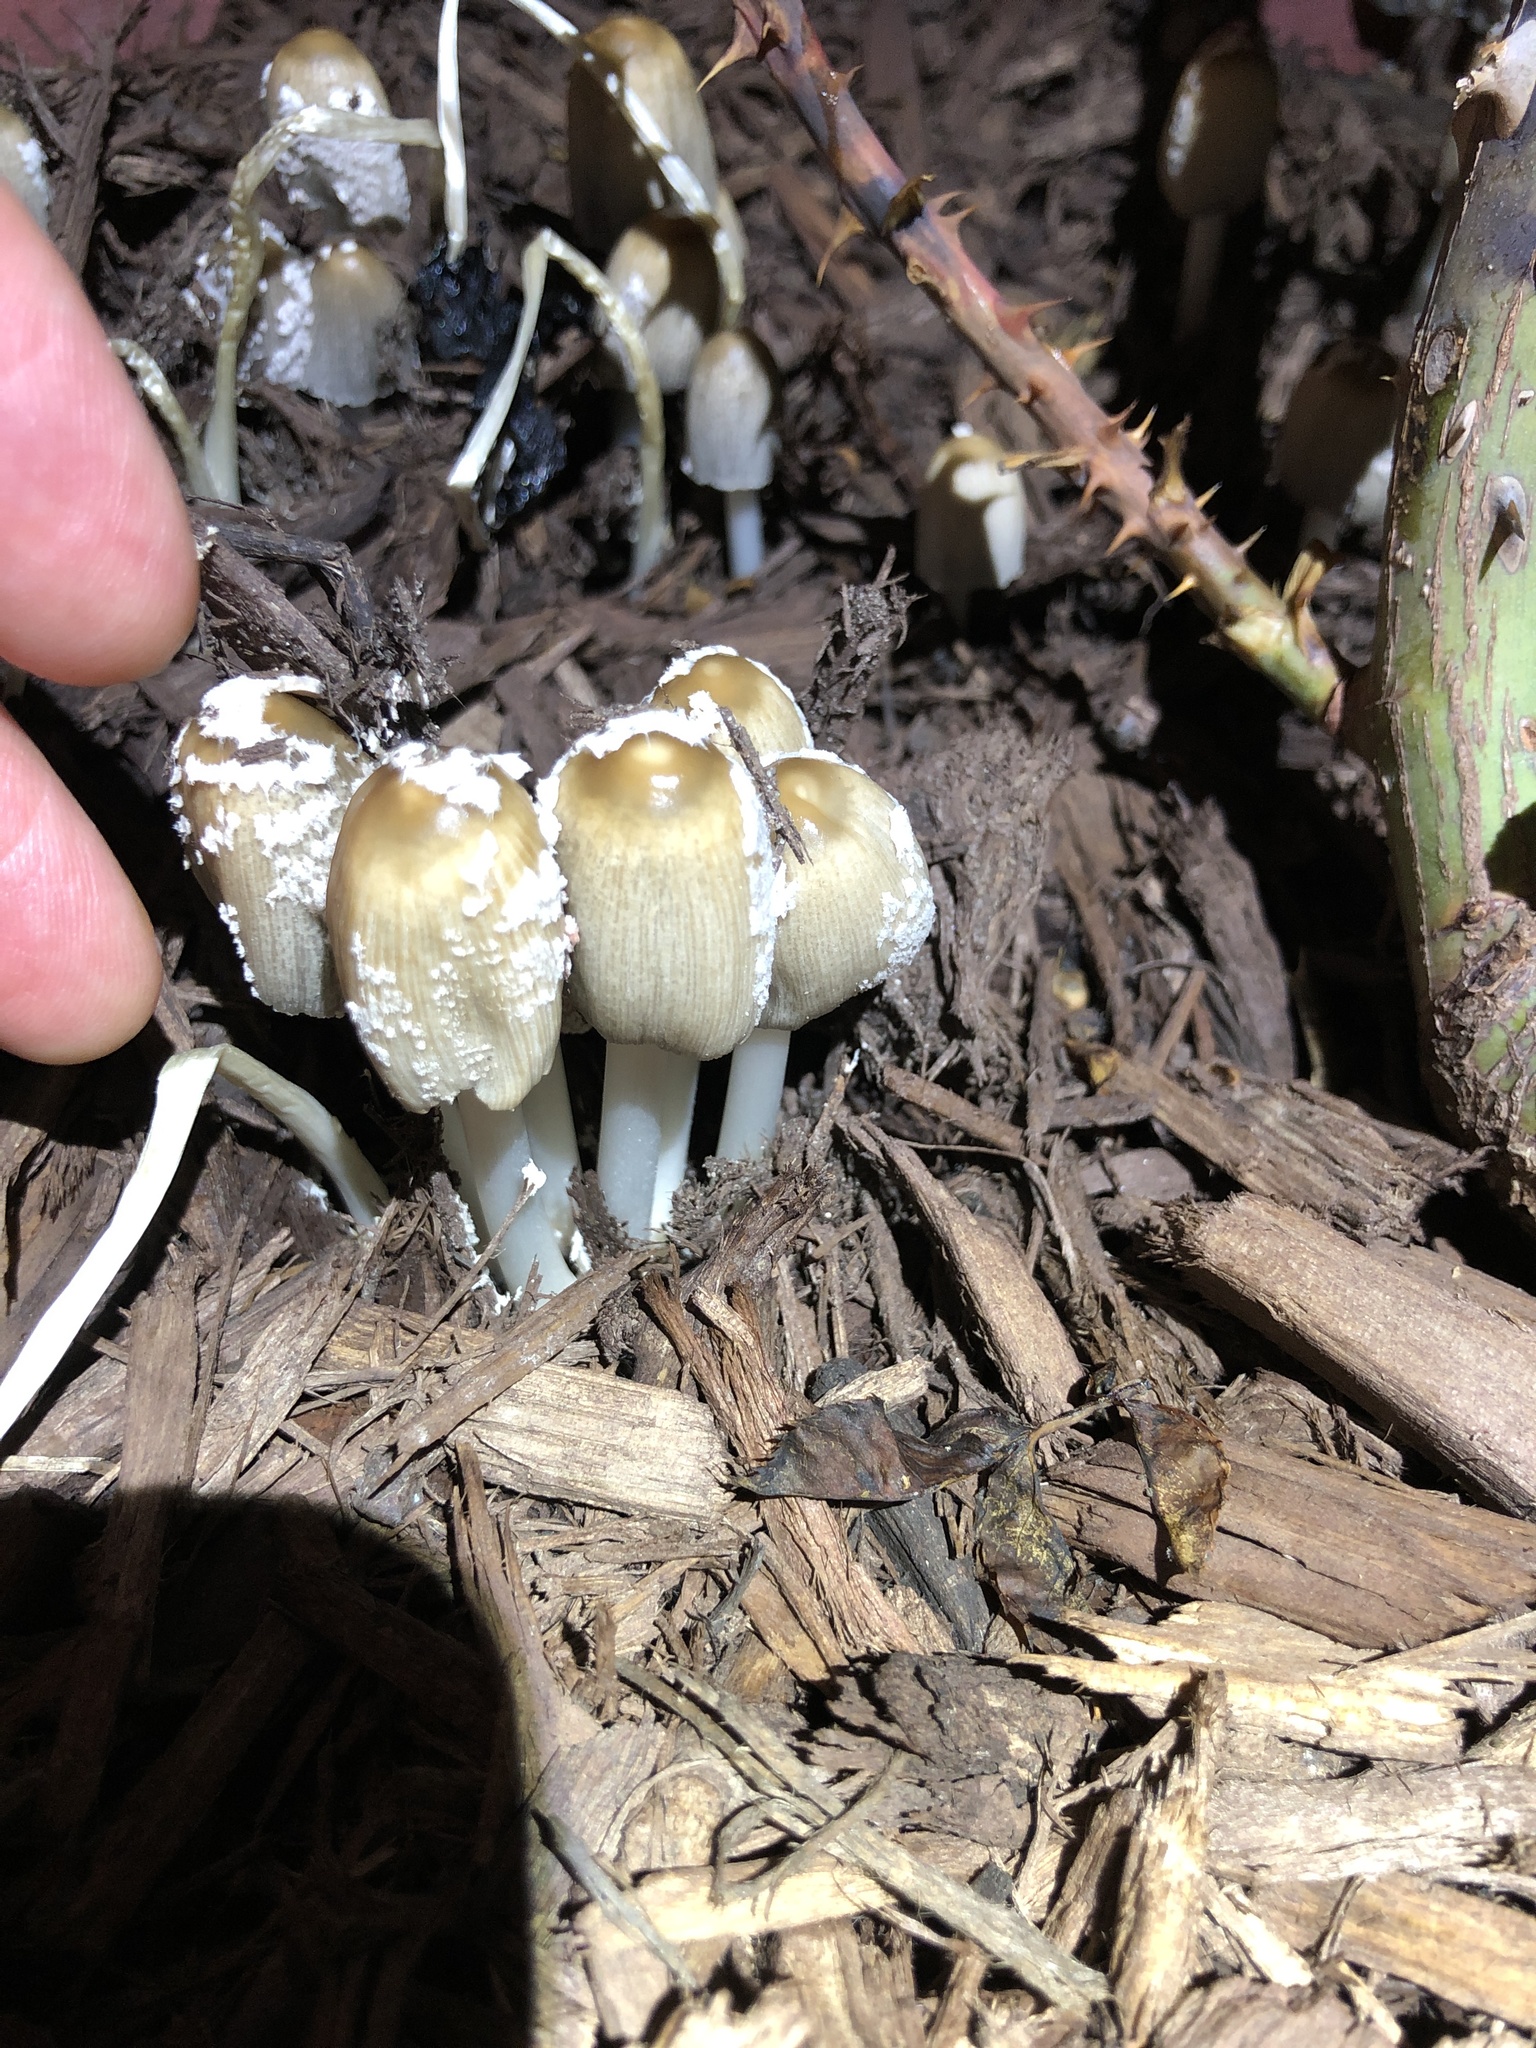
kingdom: Fungi
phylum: Basidiomycota
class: Agaricomycetes
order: Agaricales
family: Psathyrellaceae
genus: Coprinellus
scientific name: Coprinellus flocculosus
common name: Flocculose inkcap
